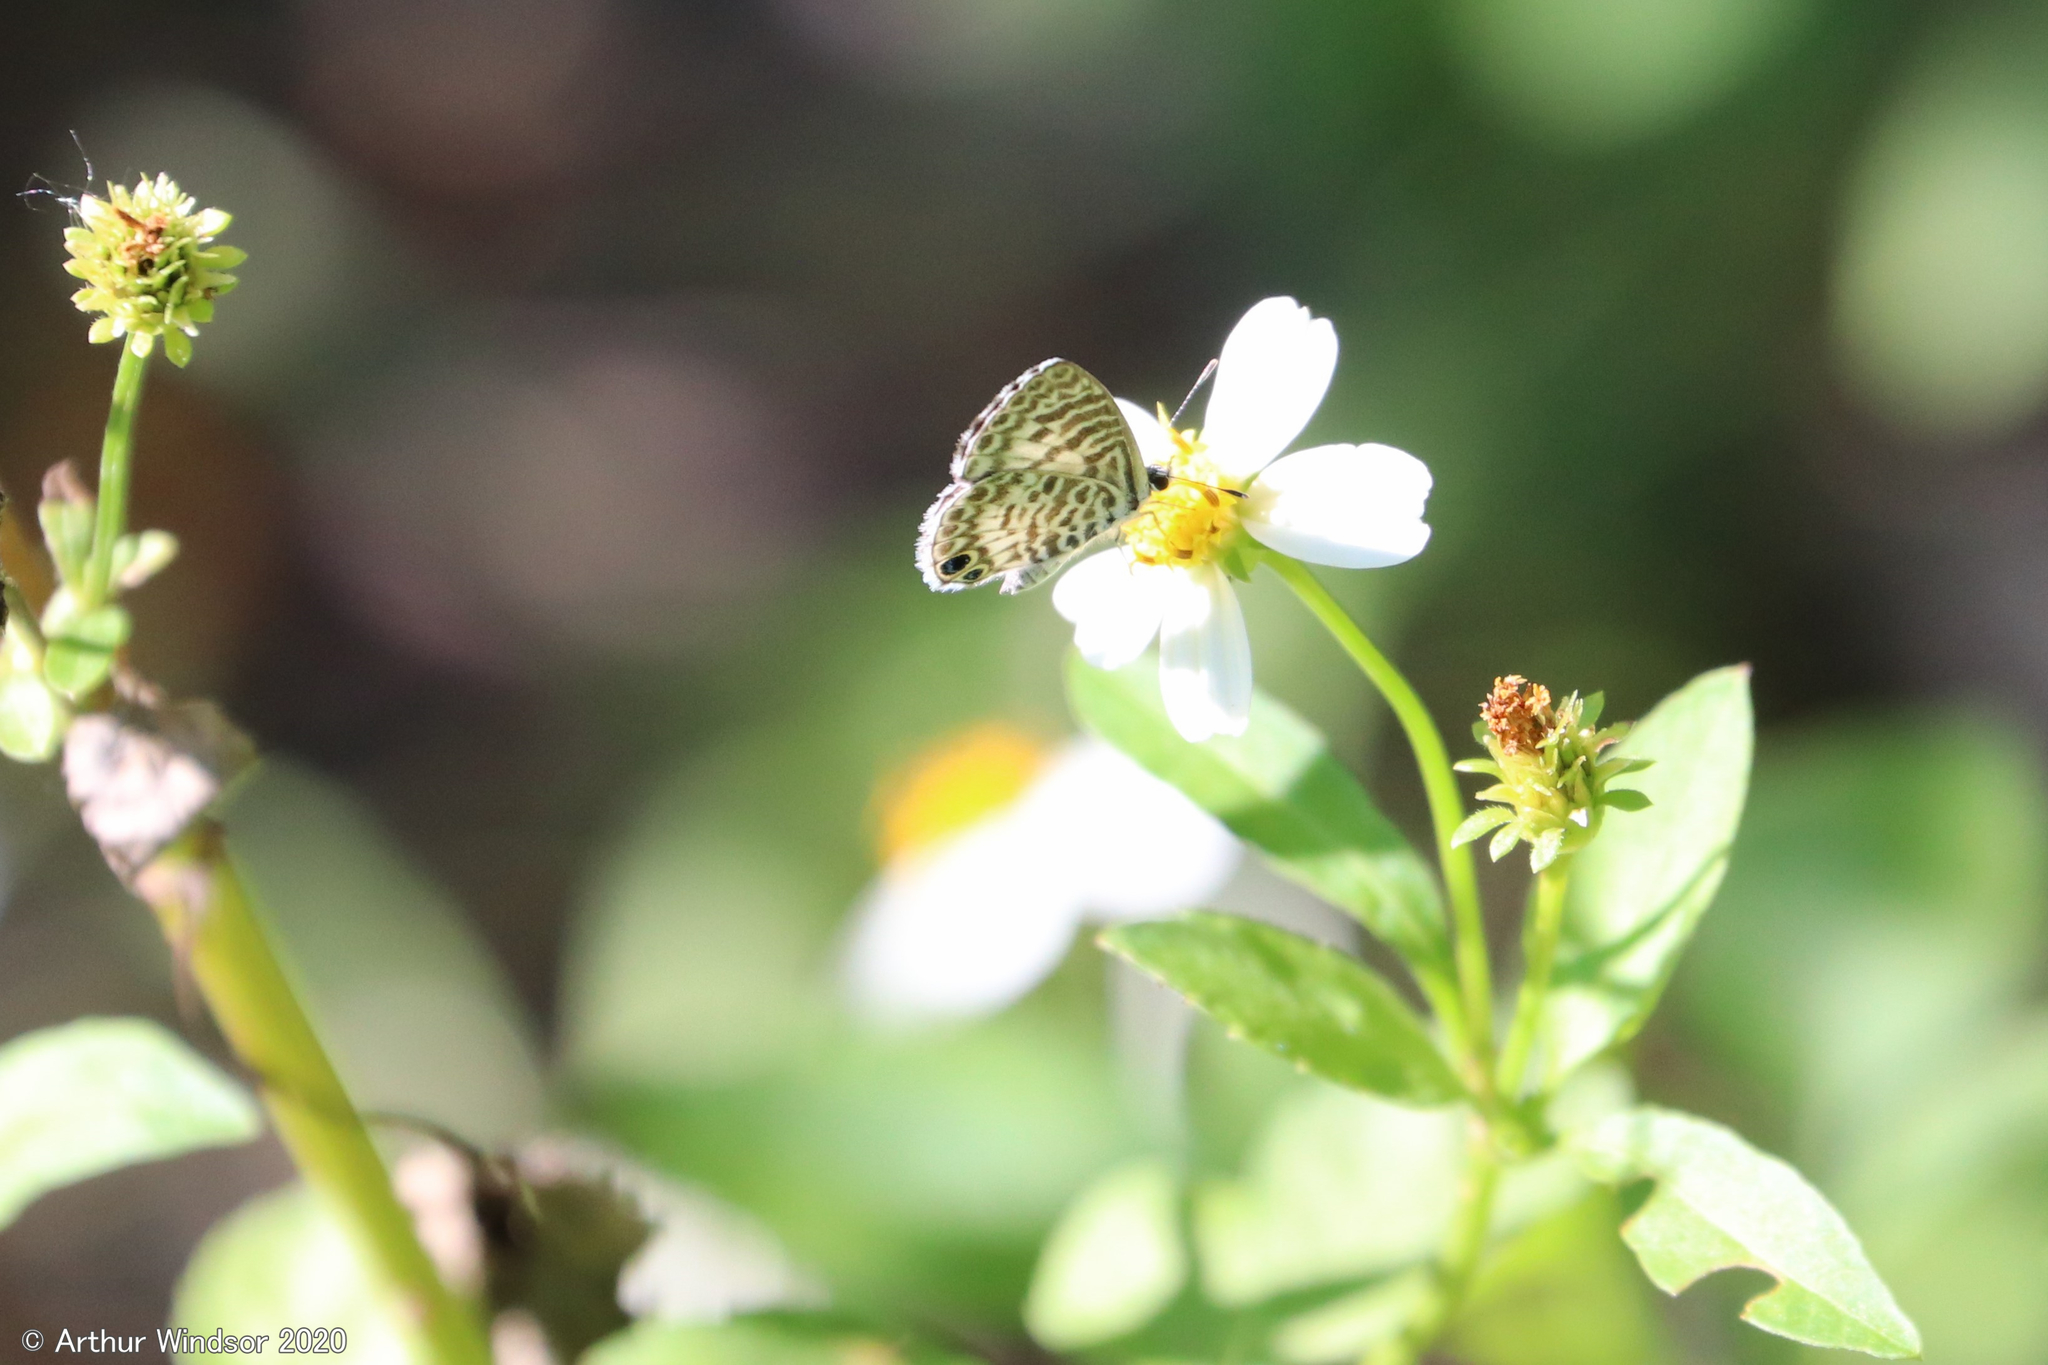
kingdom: Animalia
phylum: Arthropoda
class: Insecta
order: Lepidoptera
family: Lycaenidae
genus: Leptotes
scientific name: Leptotes cassius
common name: Cassius blue
